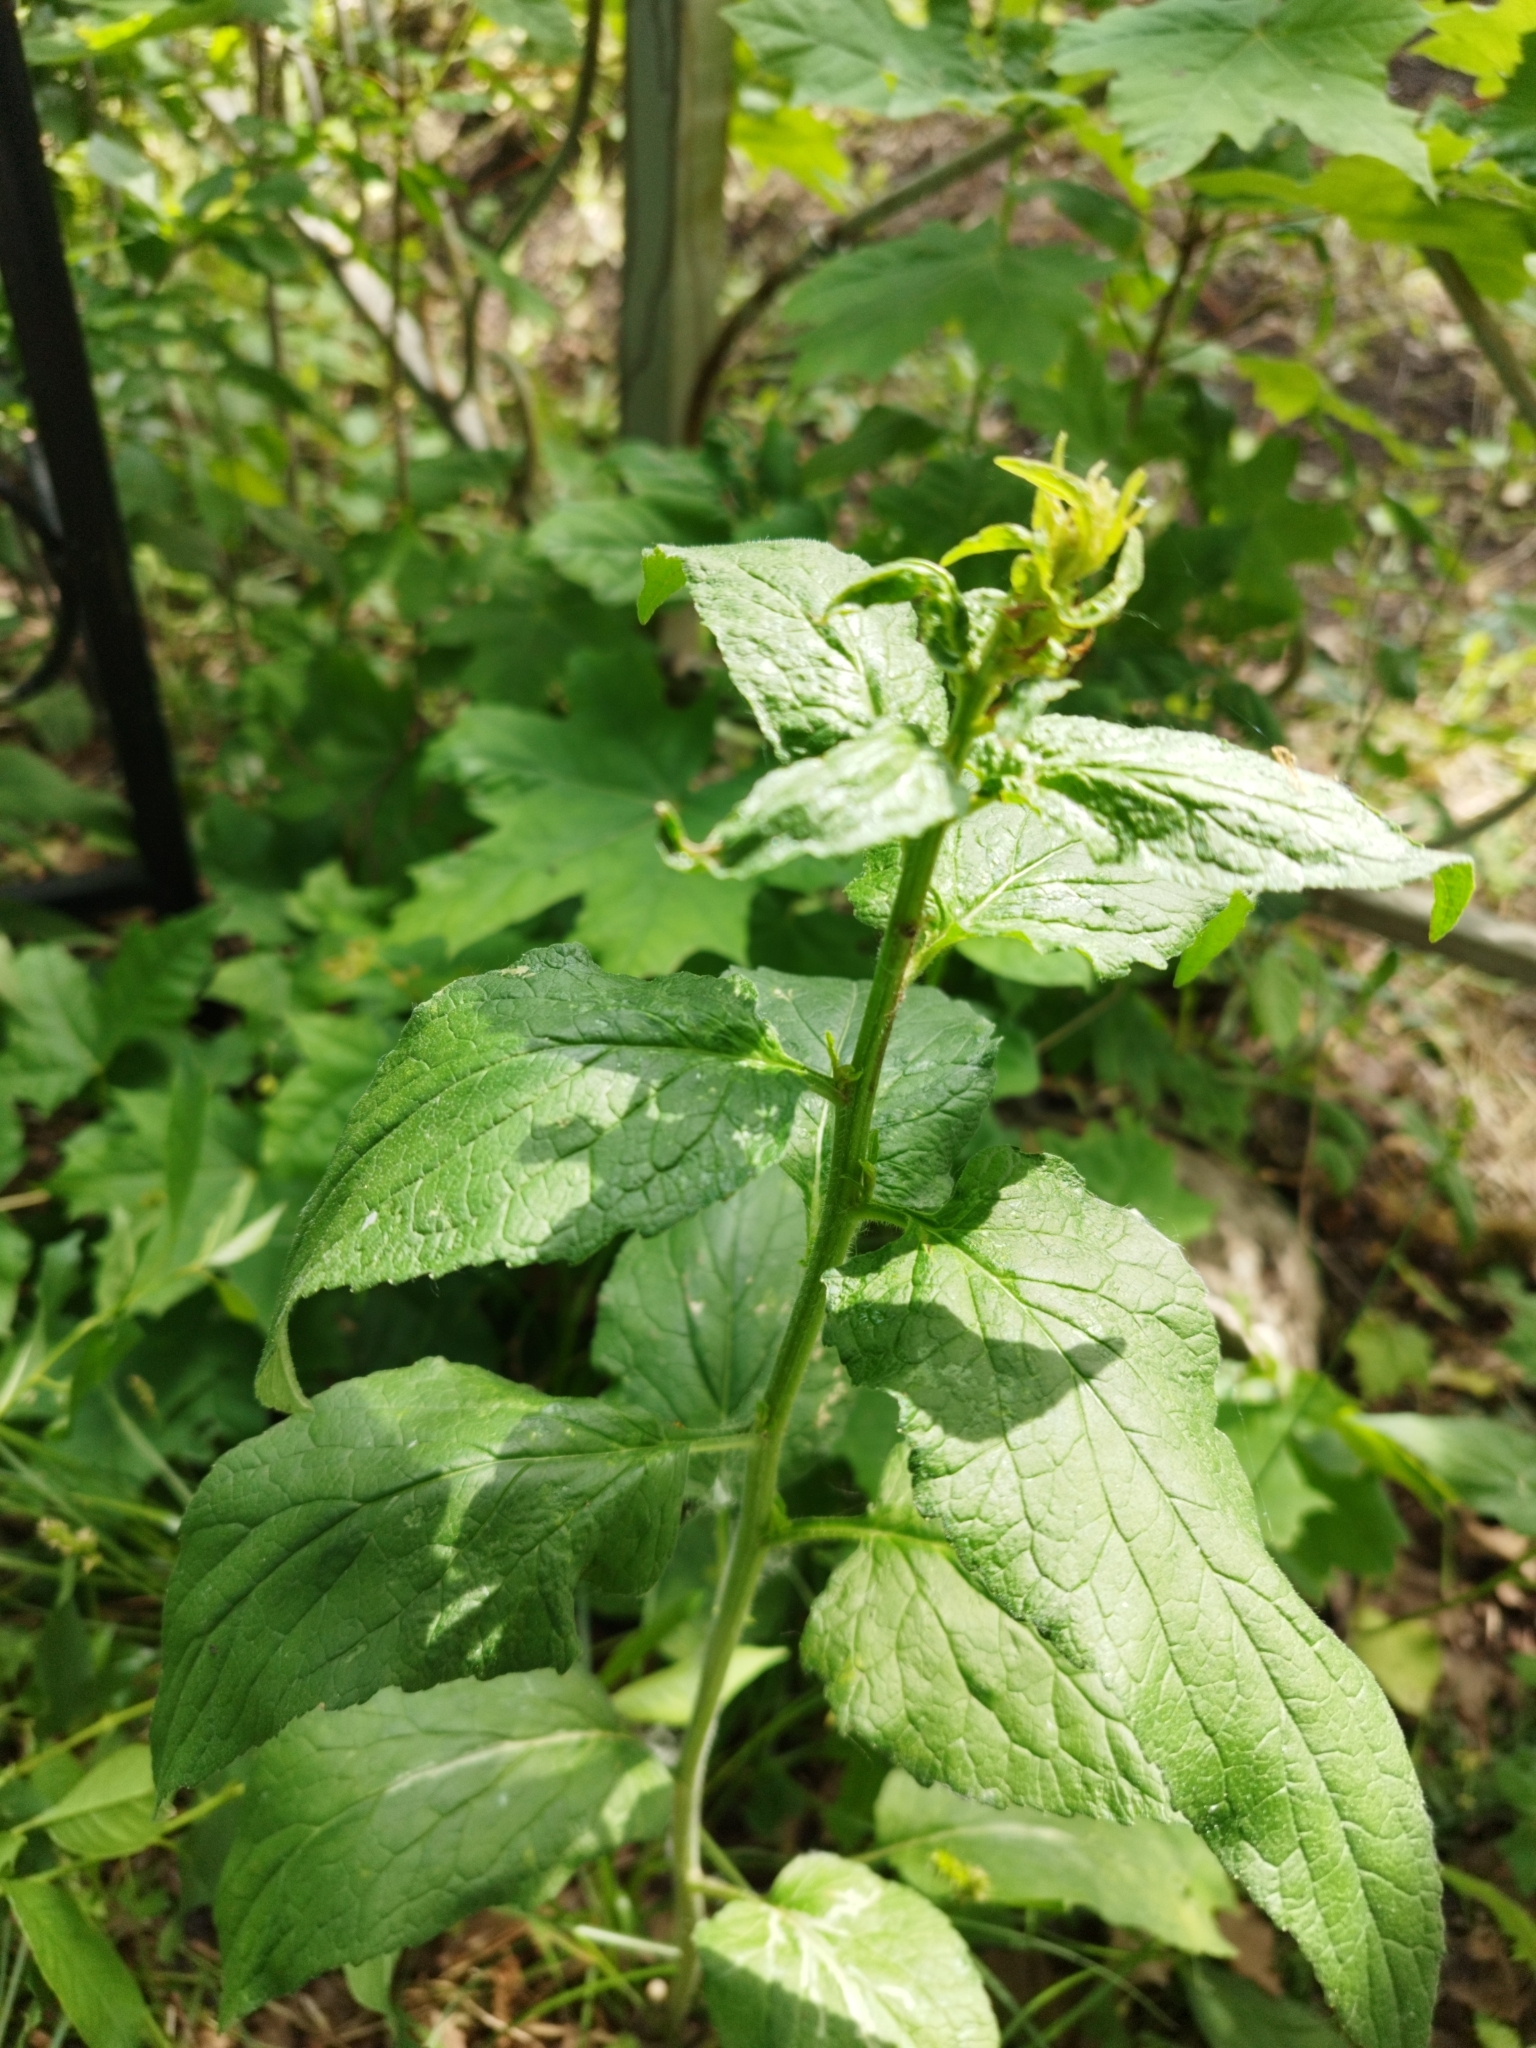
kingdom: Plantae
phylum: Tracheophyta
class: Magnoliopsida
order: Asterales
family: Campanulaceae
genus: Campanula
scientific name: Campanula latifolia
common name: Giant bellflower
